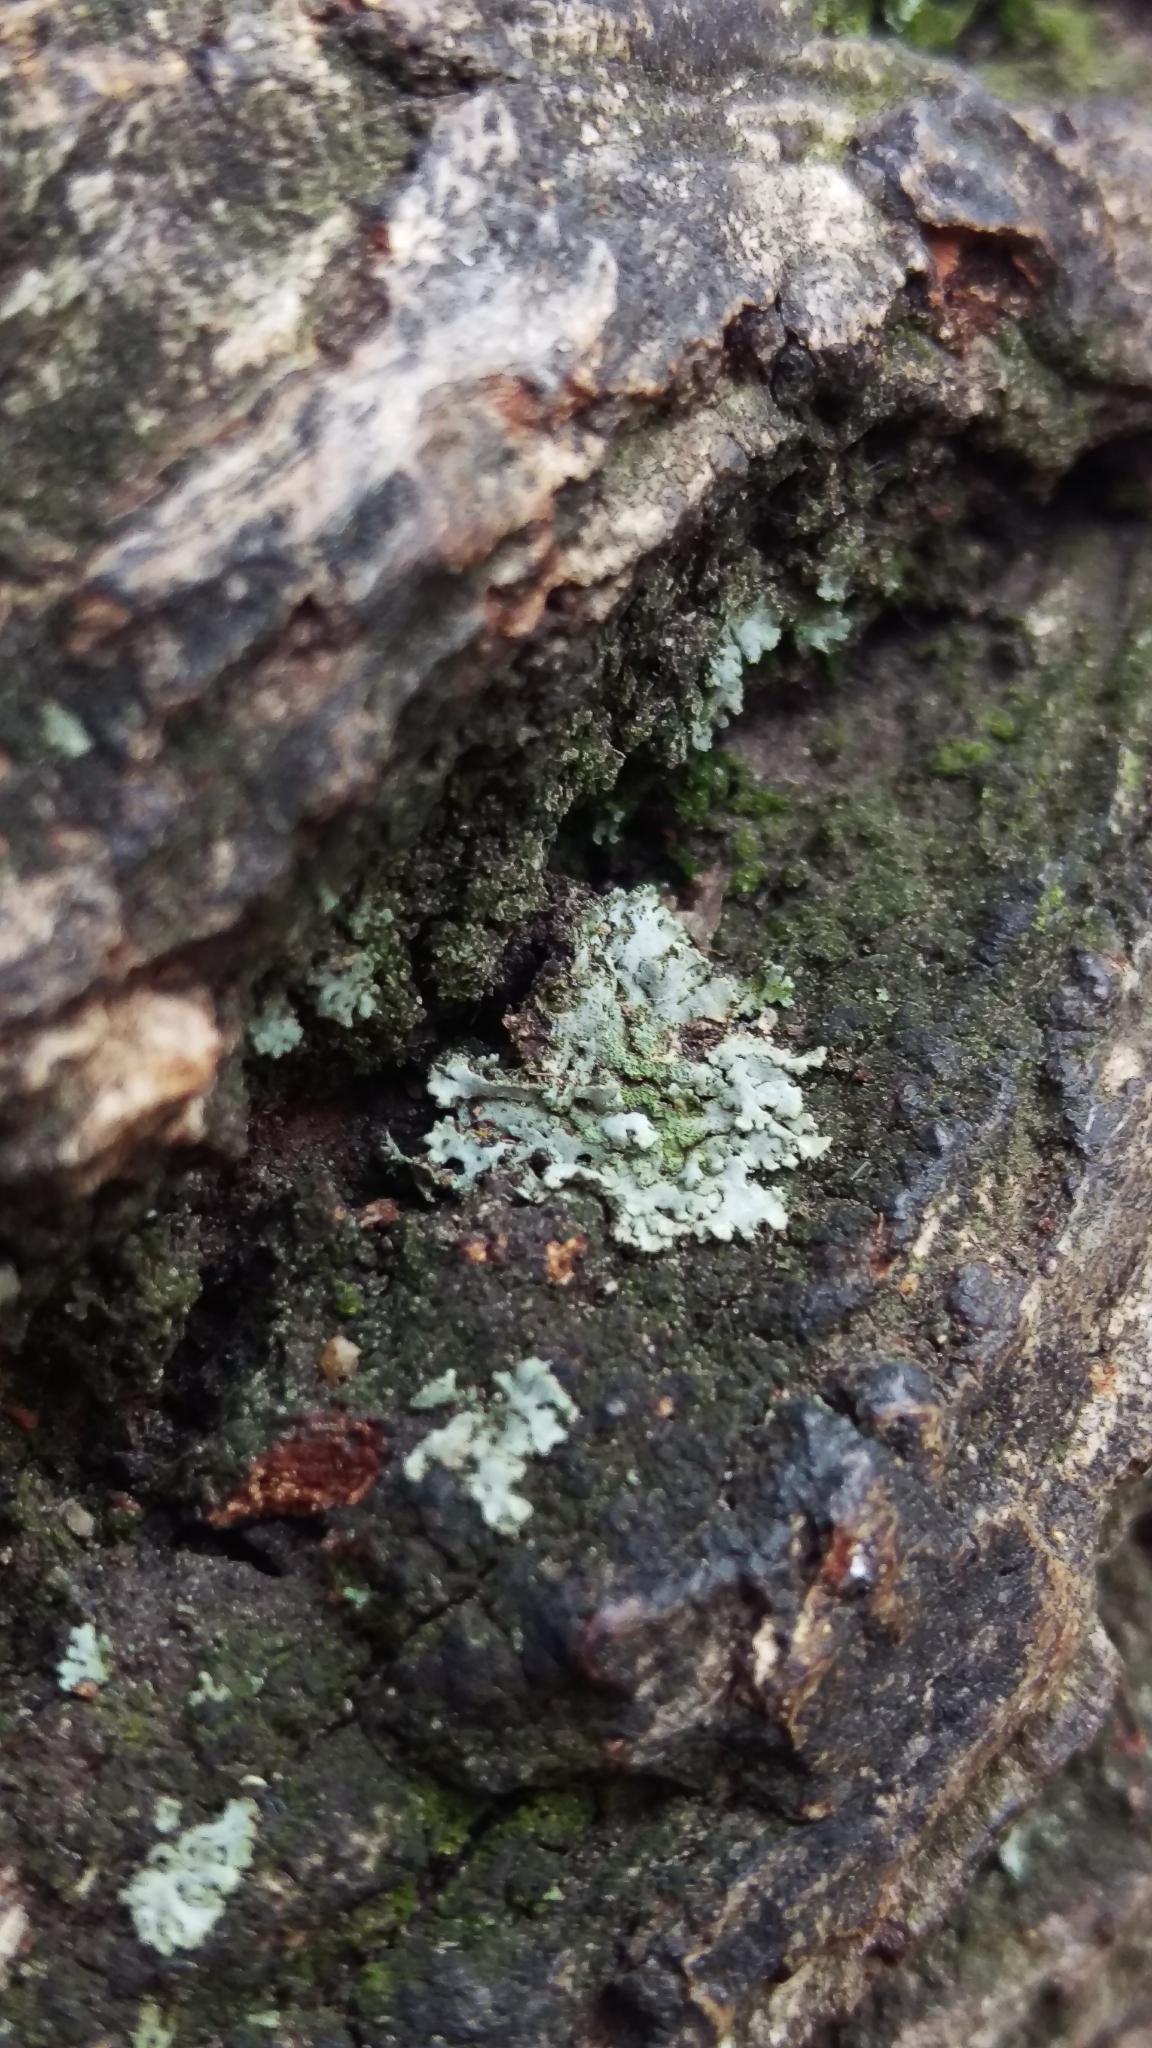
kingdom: Fungi
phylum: Ascomycota
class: Lecanoromycetes
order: Caliciales
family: Physciaceae
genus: Phaeophyscia
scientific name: Phaeophyscia orbicularis
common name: Mealy shadow lichen
